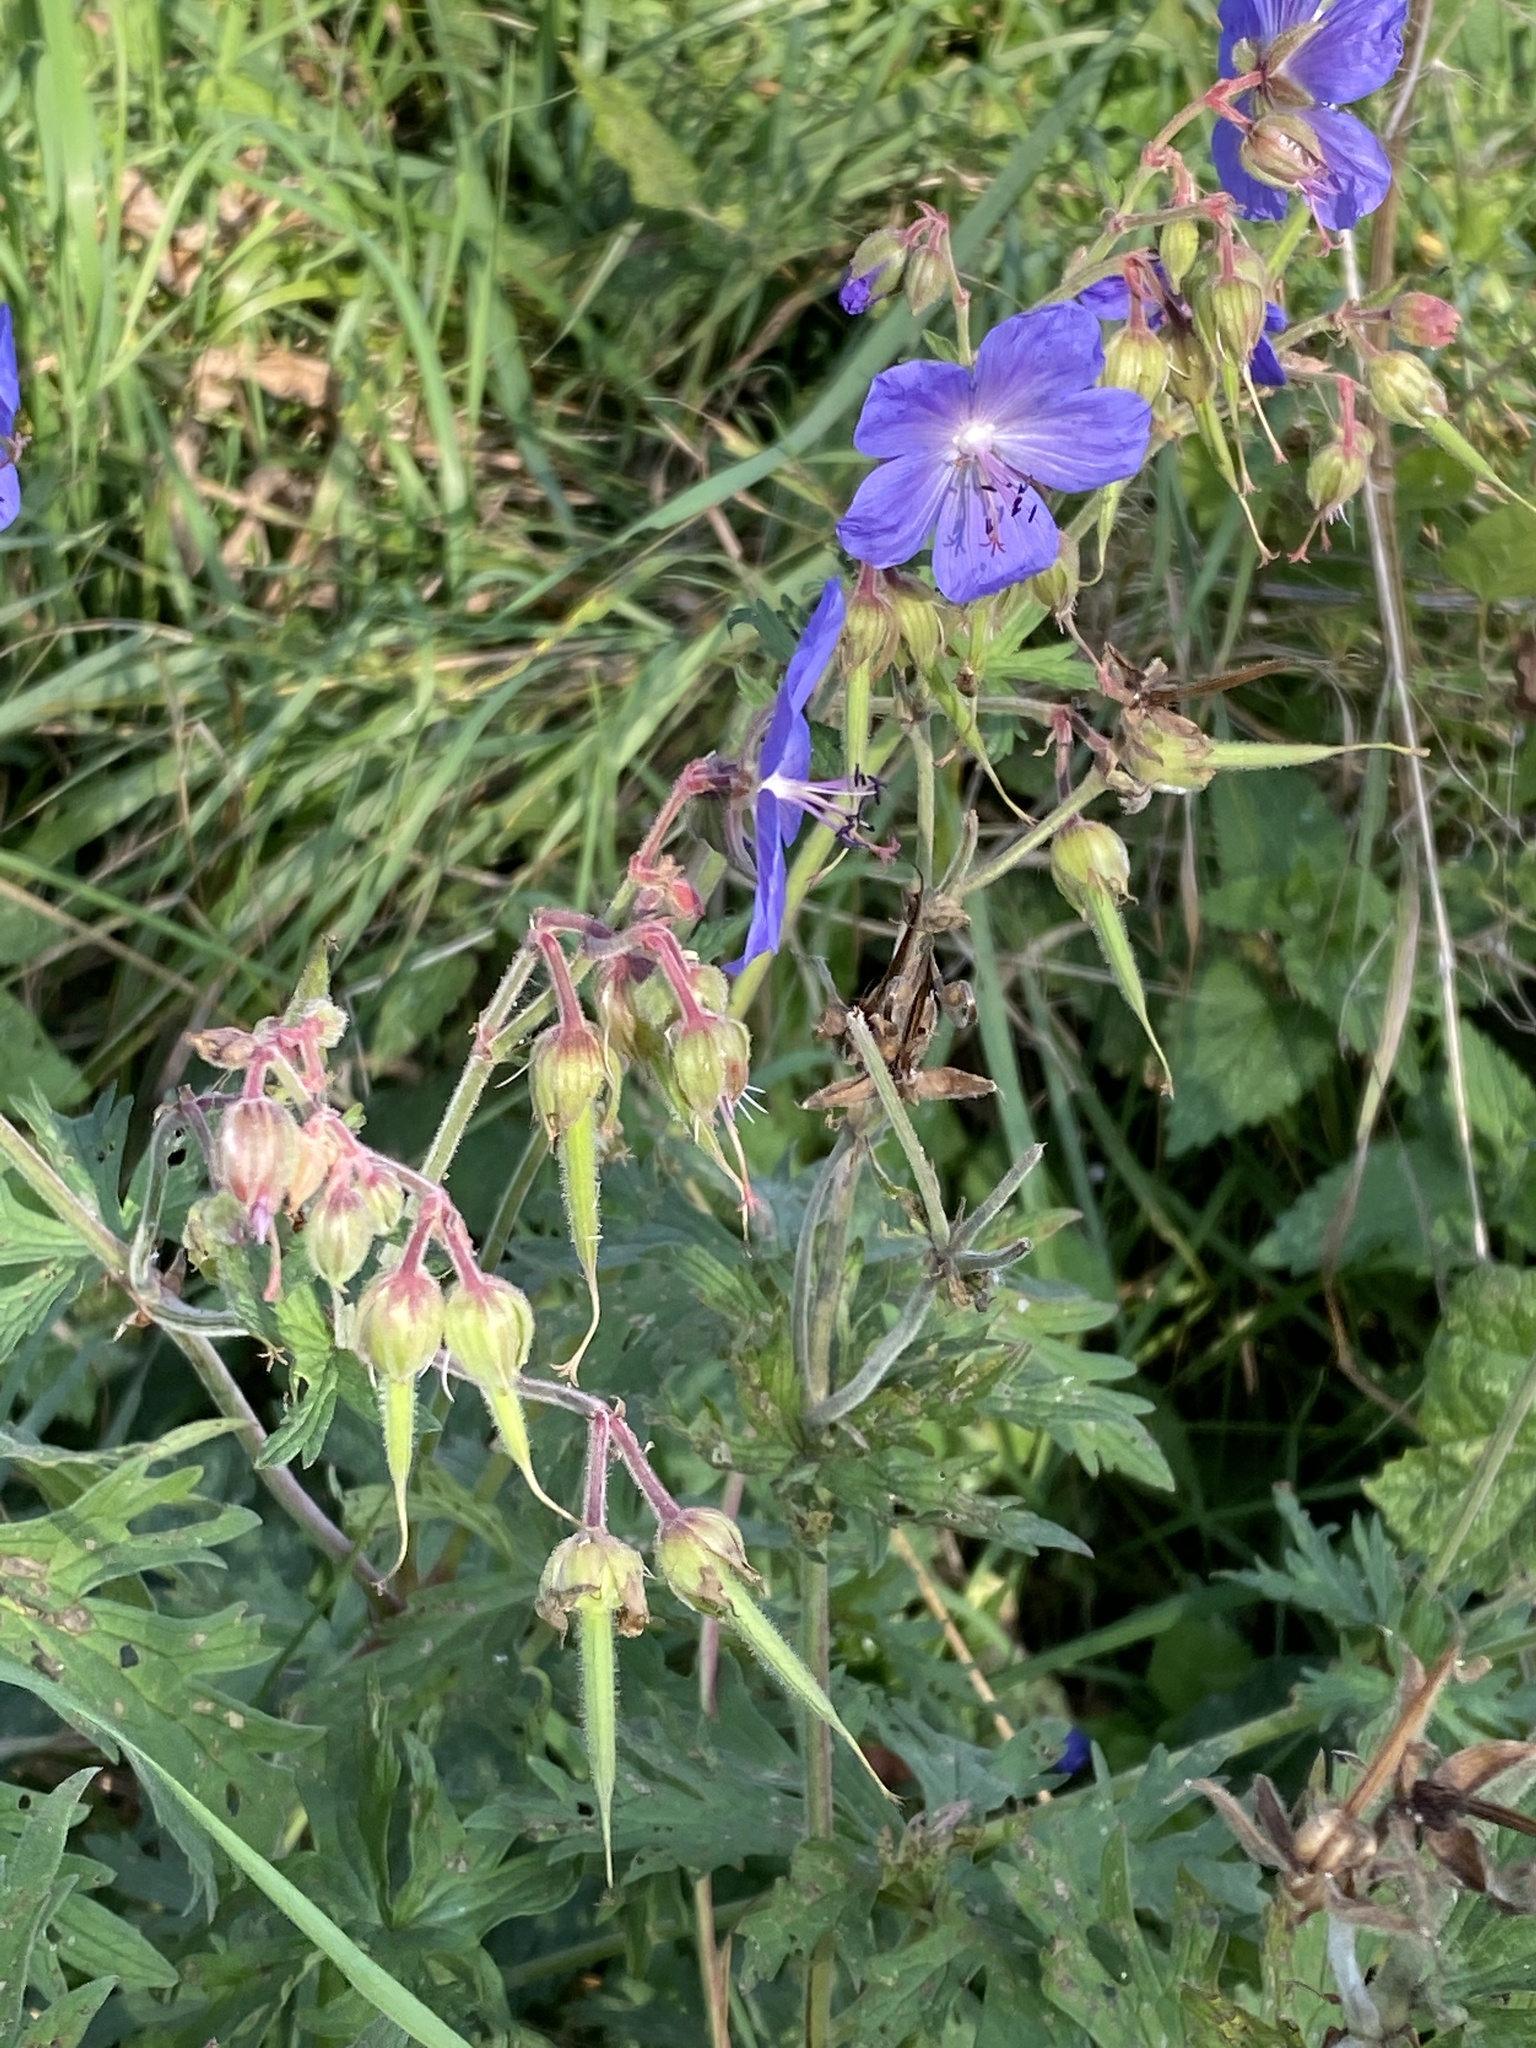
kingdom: Plantae
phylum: Tracheophyta
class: Magnoliopsida
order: Geraniales
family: Geraniaceae
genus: Geranium
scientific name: Geranium pratense
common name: Meadow crane's-bill
